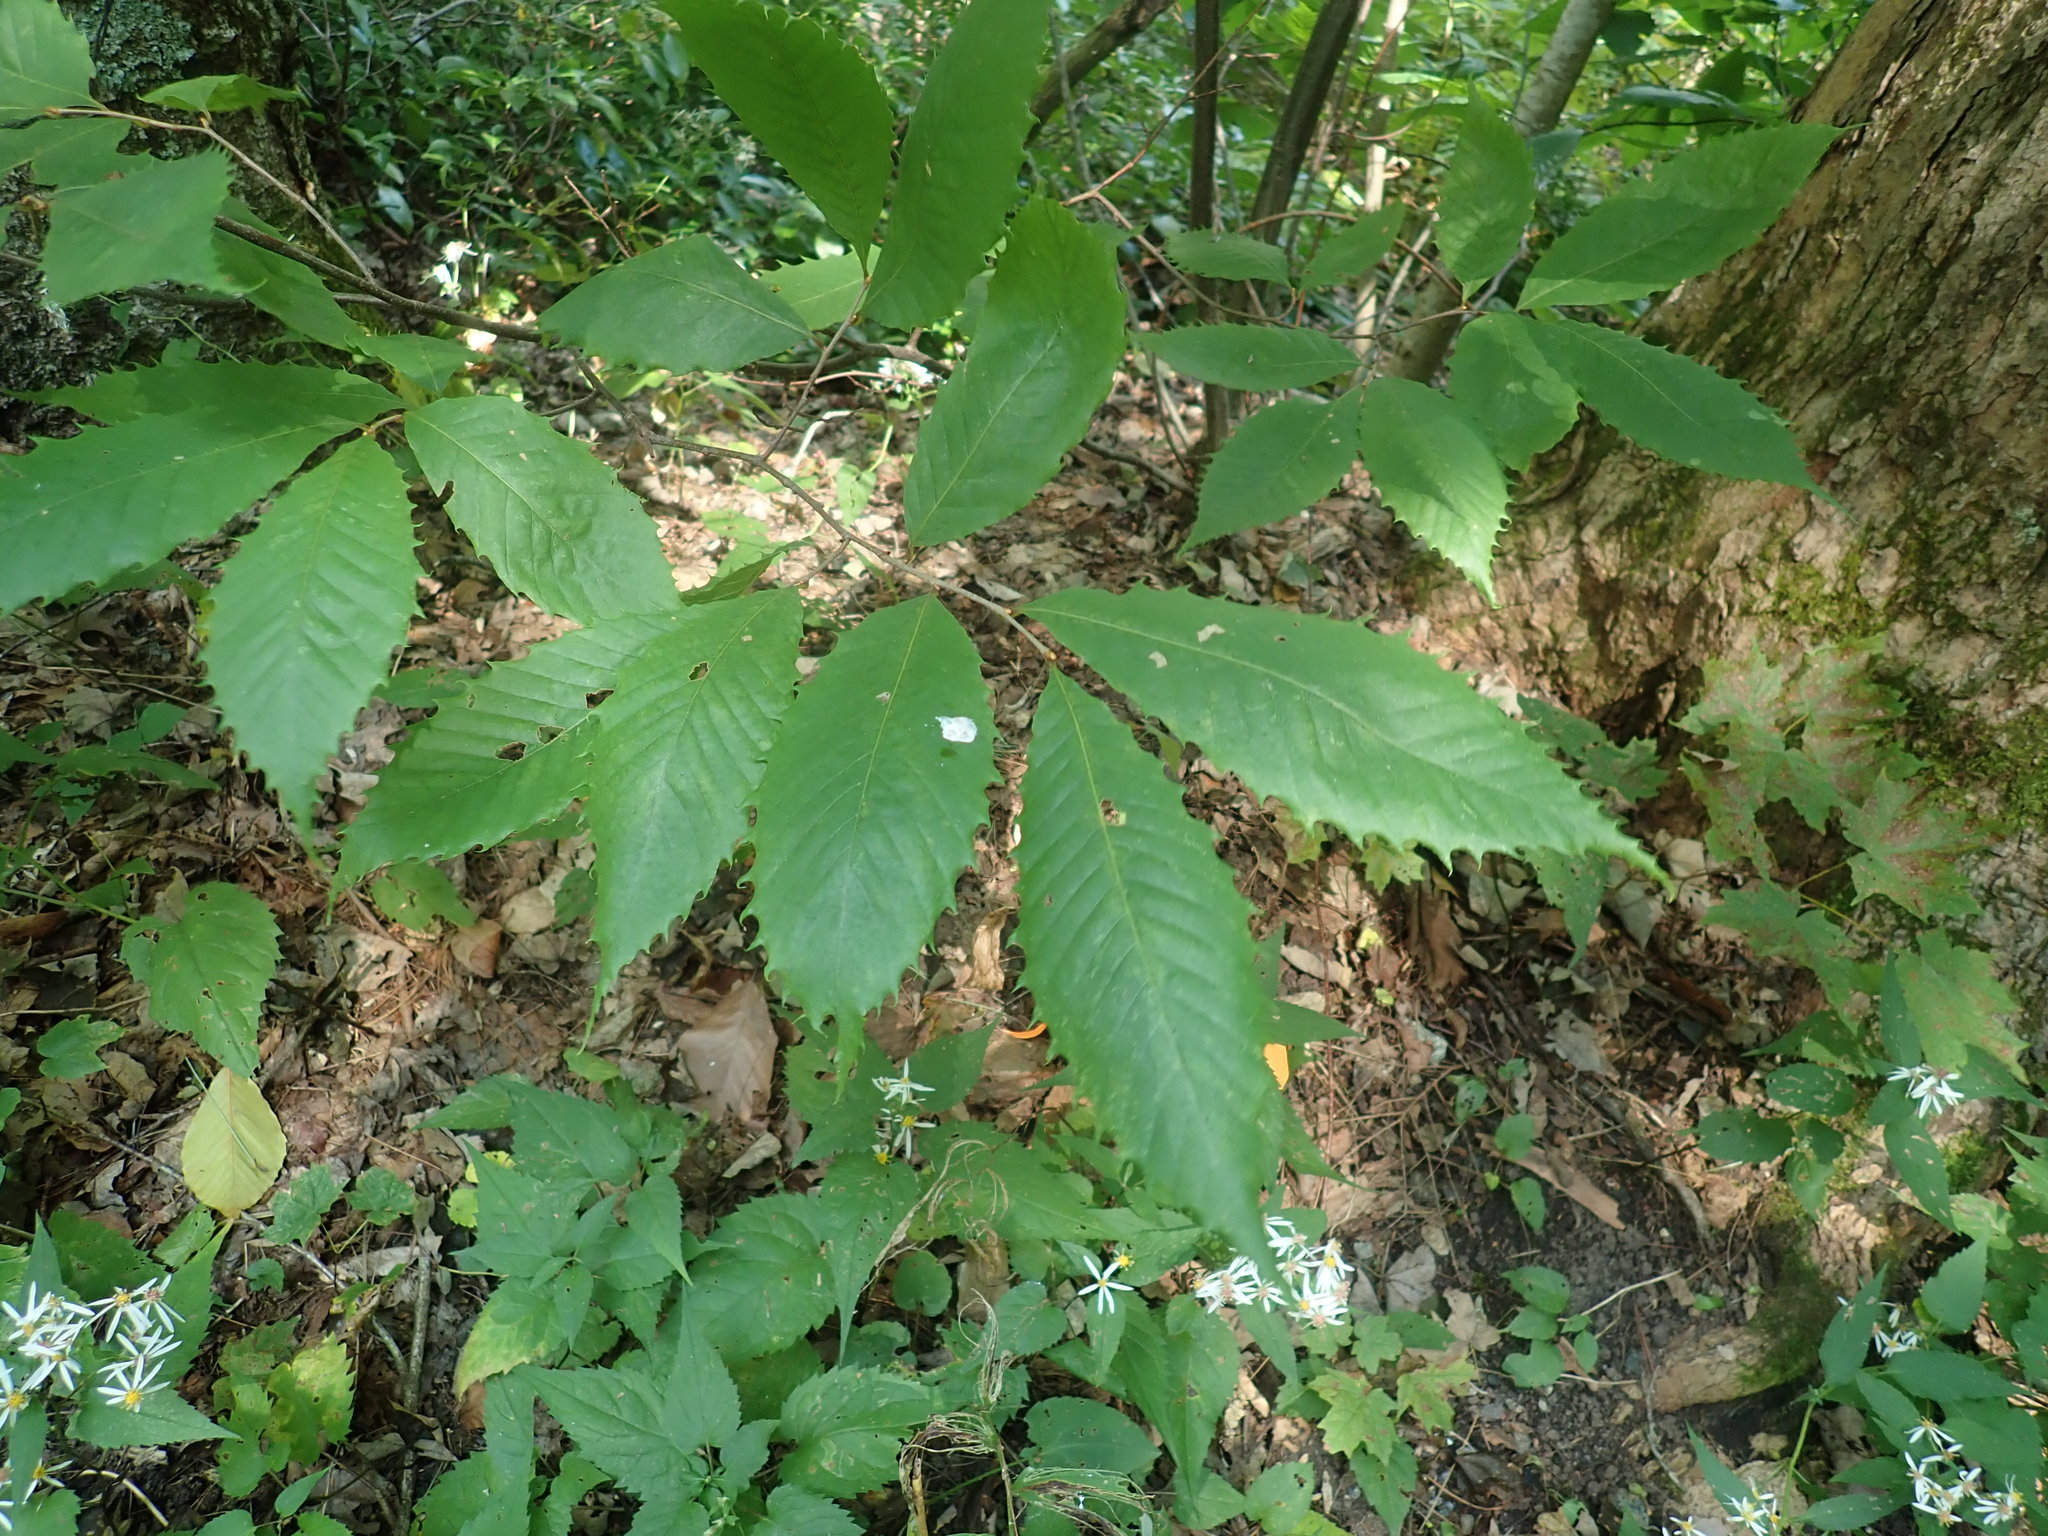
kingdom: Plantae
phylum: Tracheophyta
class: Magnoliopsida
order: Fagales
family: Fagaceae
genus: Castanea
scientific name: Castanea dentata
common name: American chestnut
